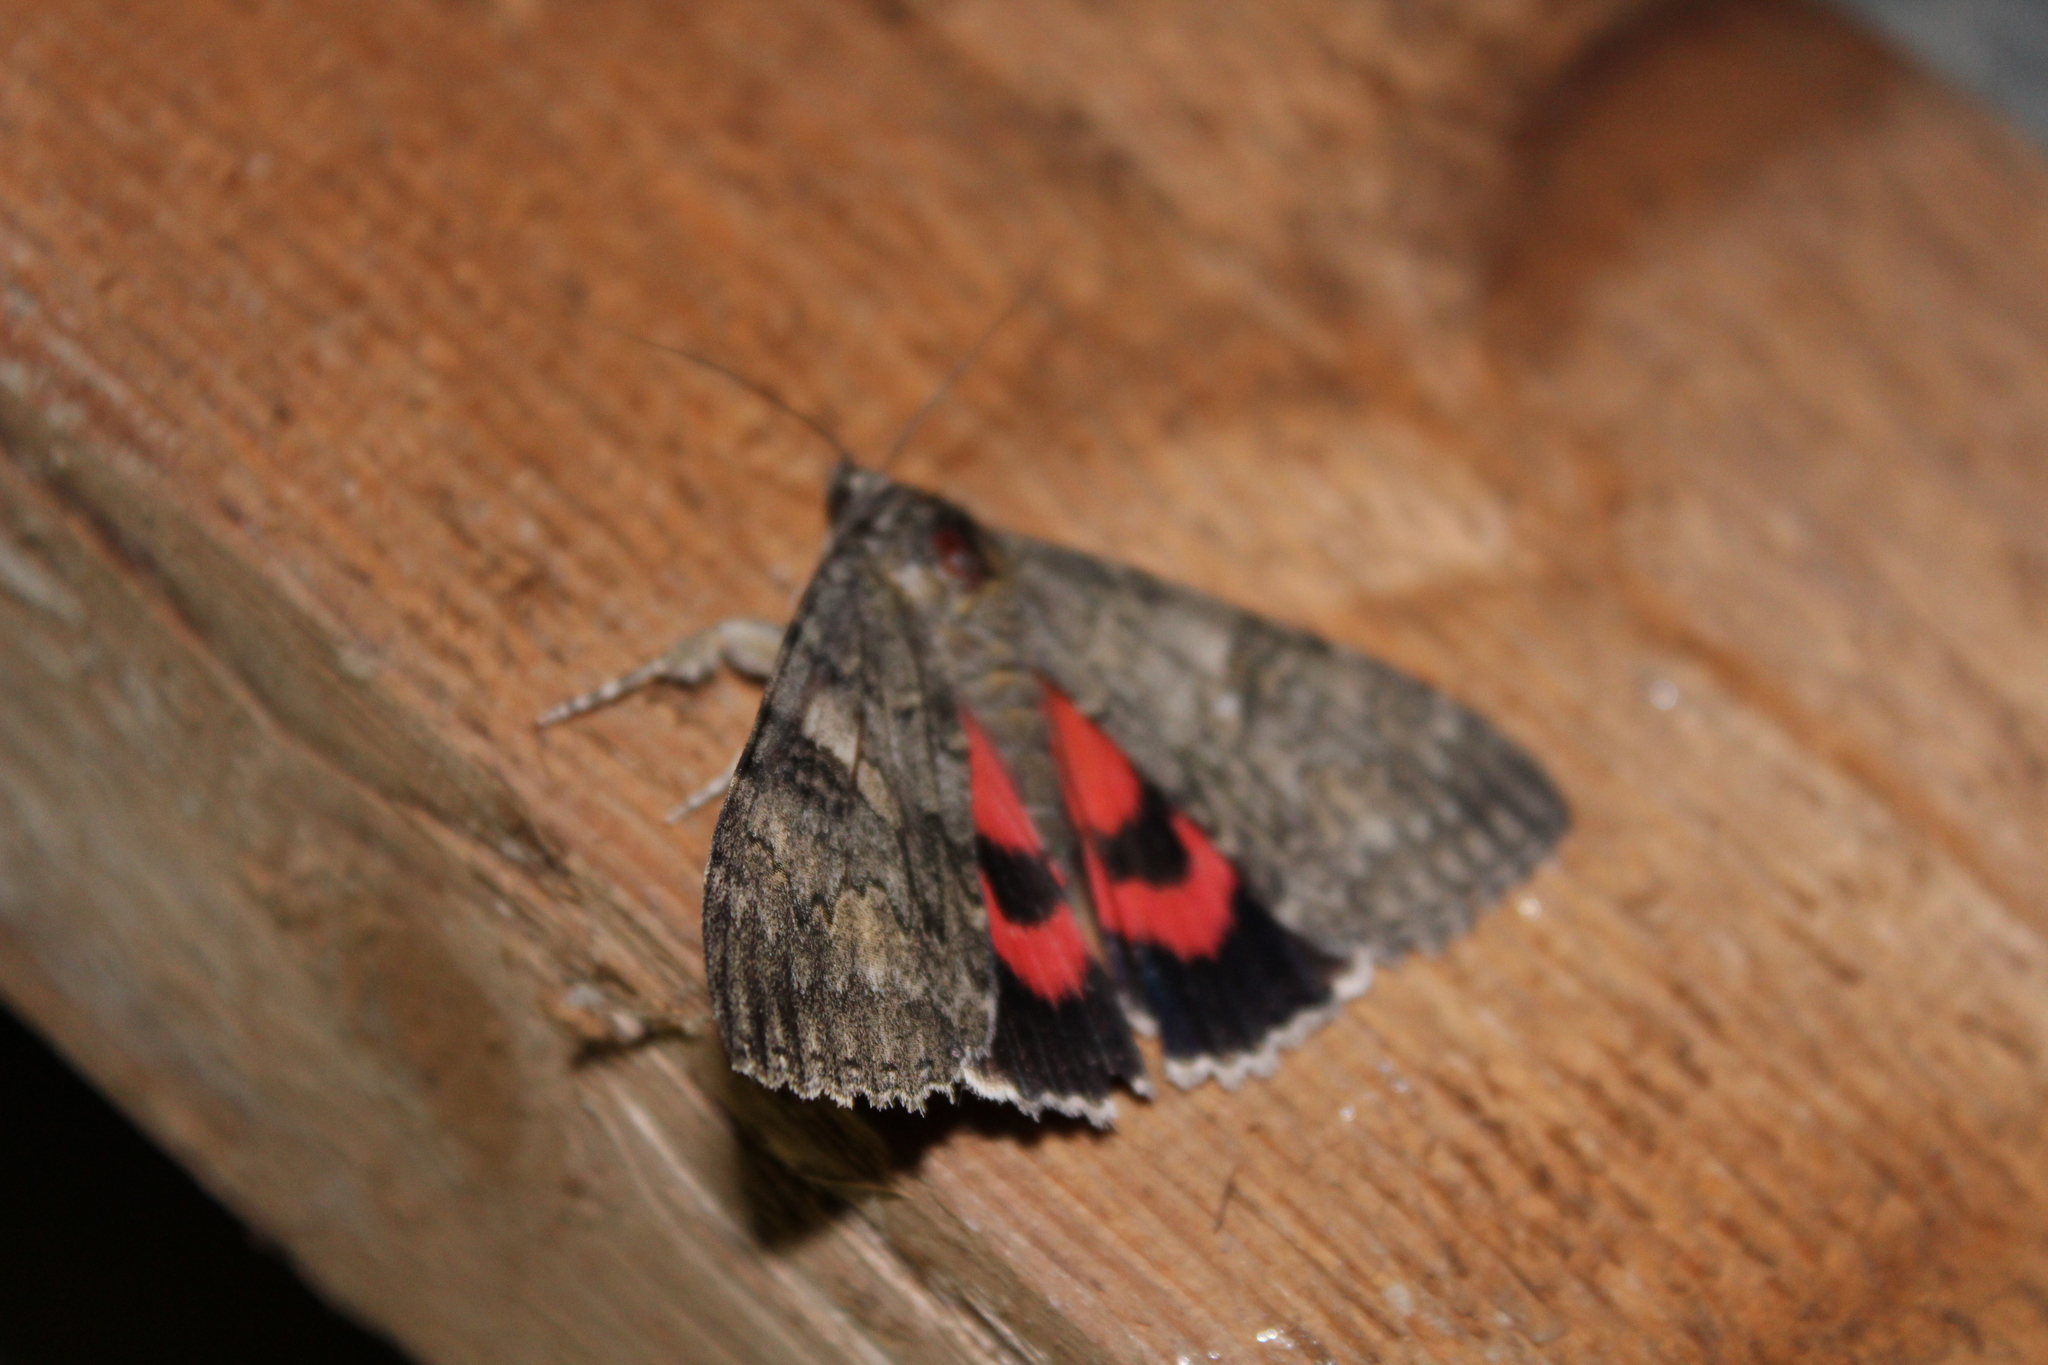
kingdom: Animalia
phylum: Arthropoda
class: Insecta
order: Lepidoptera
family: Erebidae
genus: Catocala
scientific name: Catocala nupta
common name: Red underwing
